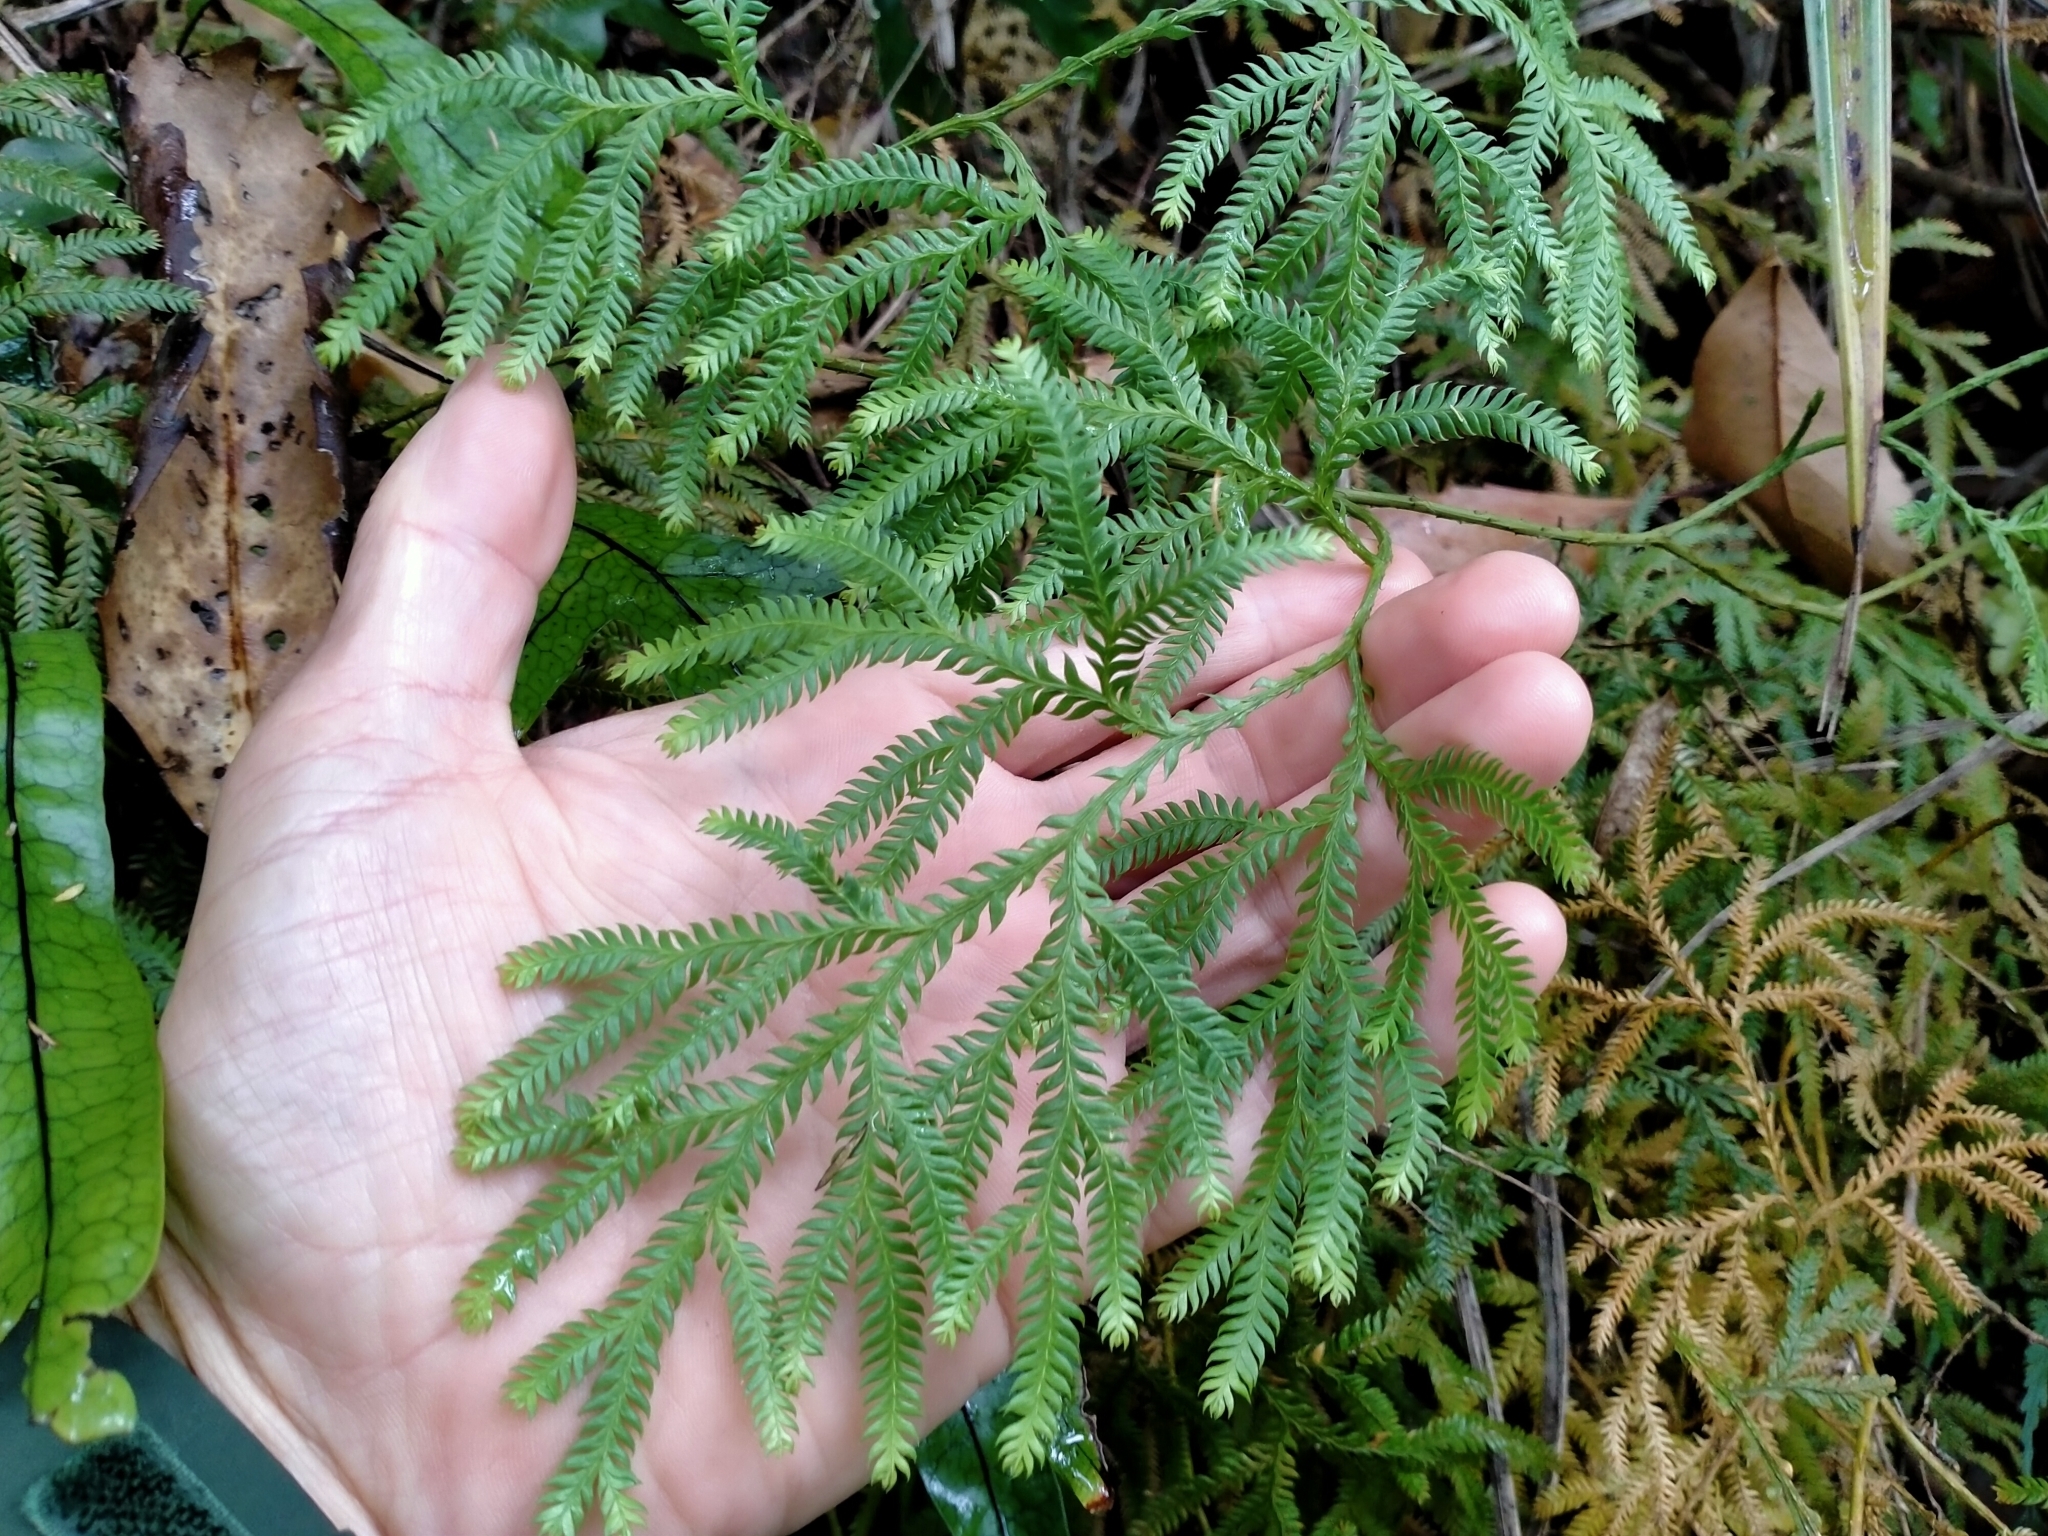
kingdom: Plantae
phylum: Tracheophyta
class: Lycopodiopsida
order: Lycopodiales
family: Lycopodiaceae
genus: Lycopodium
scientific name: Lycopodium volubile
